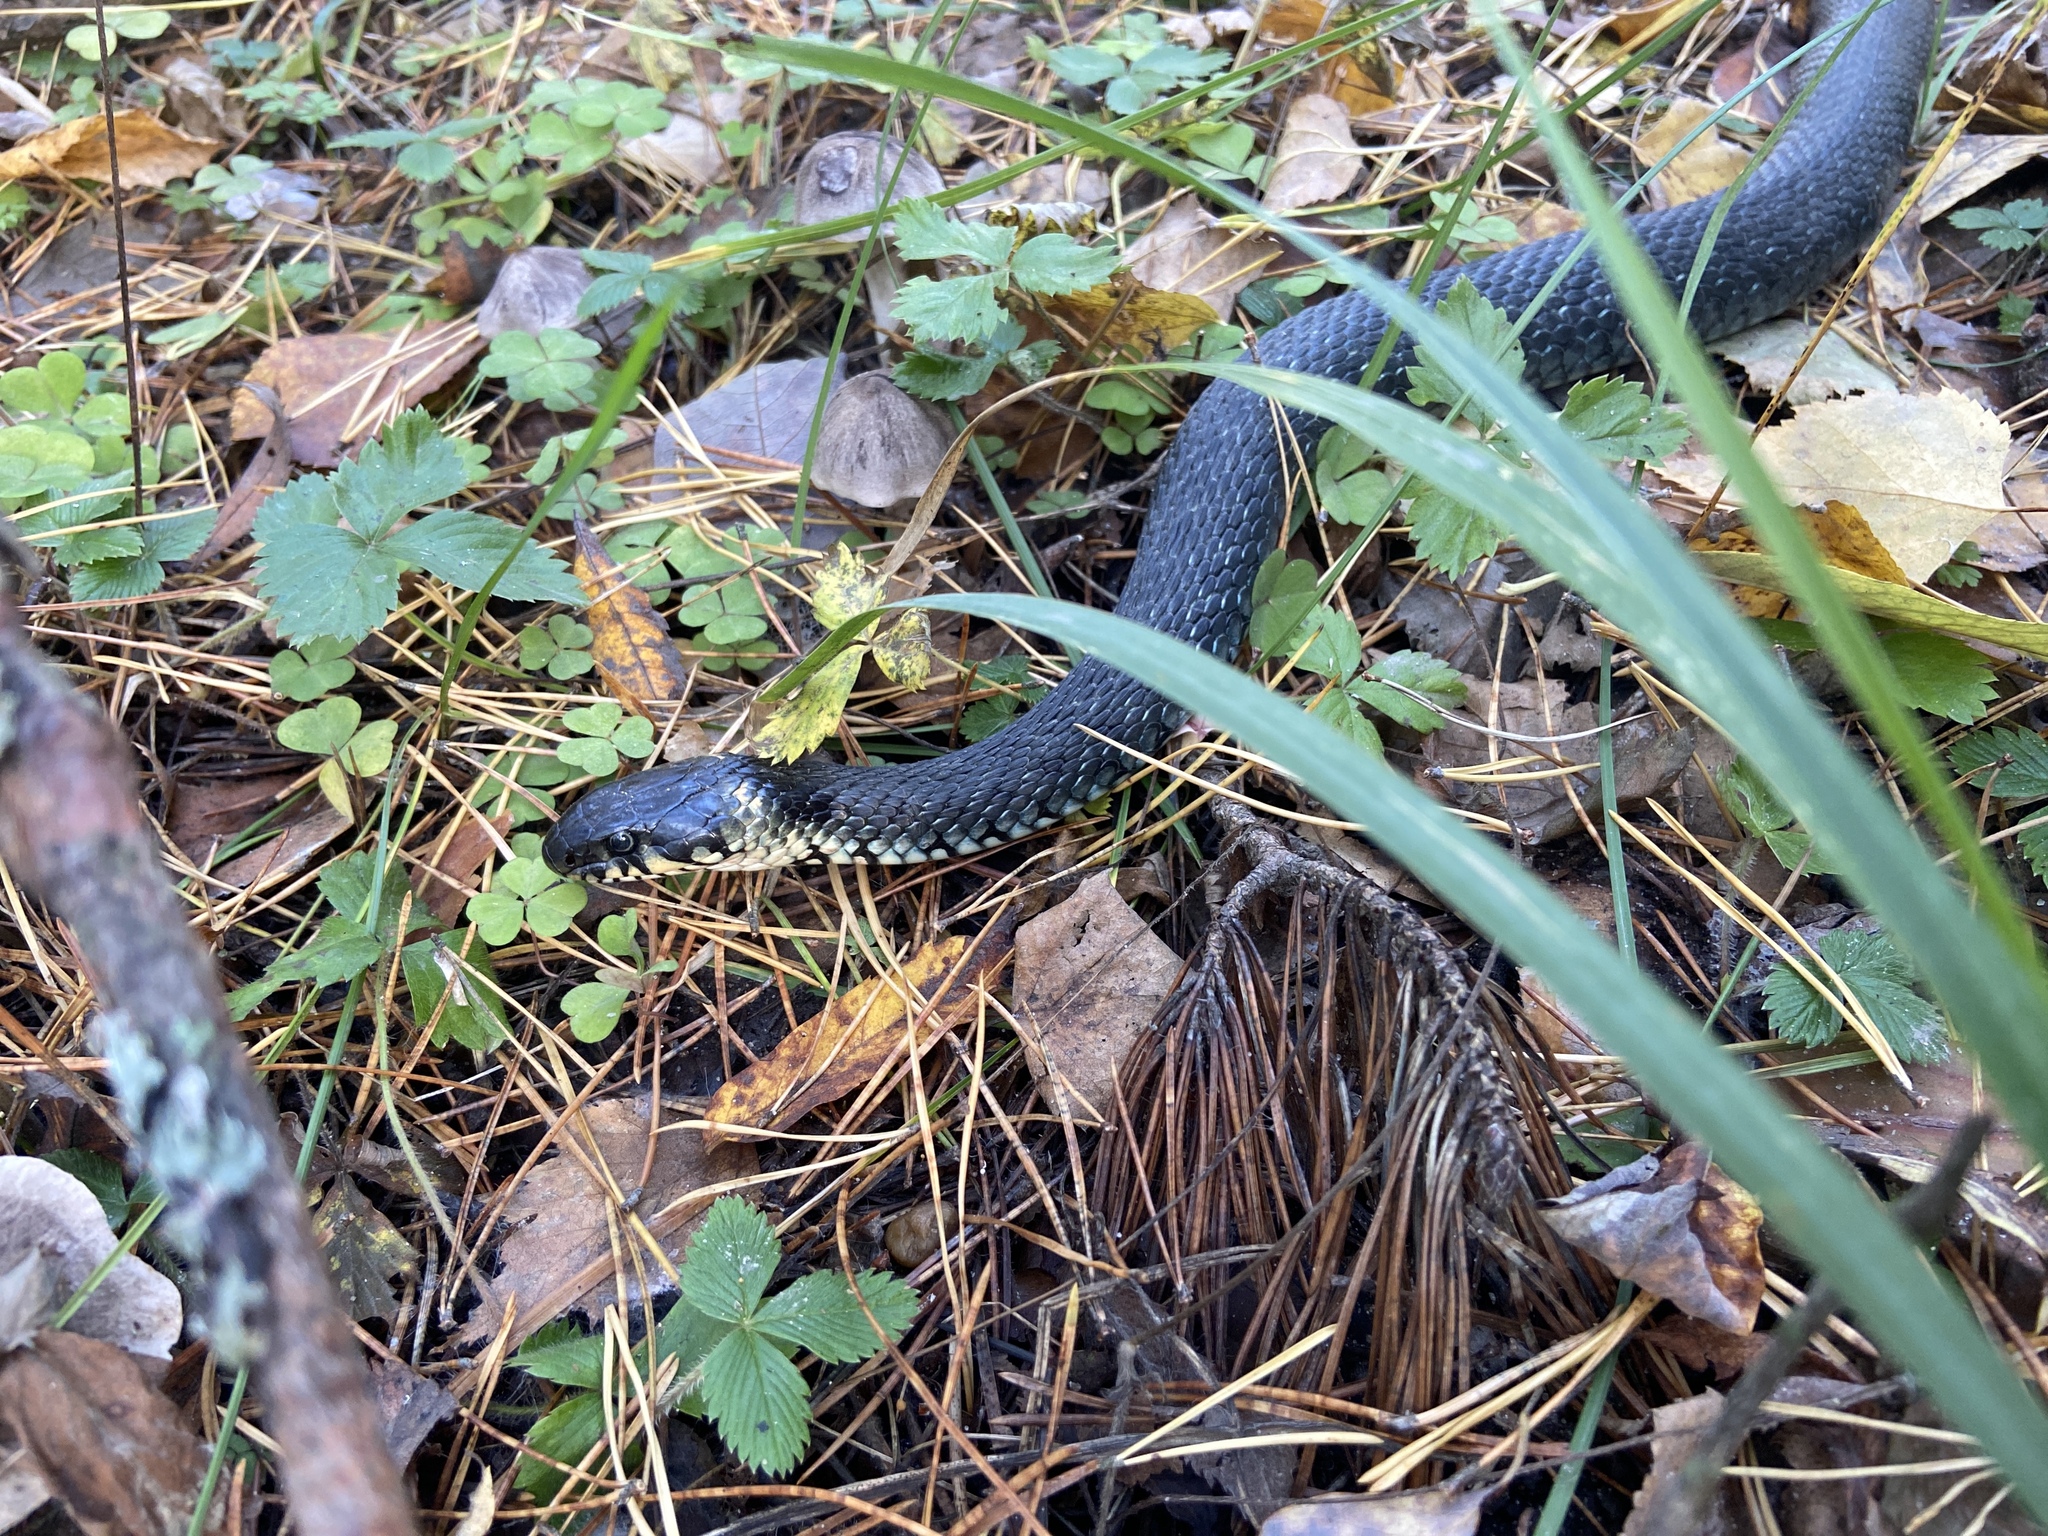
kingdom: Animalia
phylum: Chordata
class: Squamata
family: Colubridae
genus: Natrix
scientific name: Natrix natrix
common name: Grass snake
